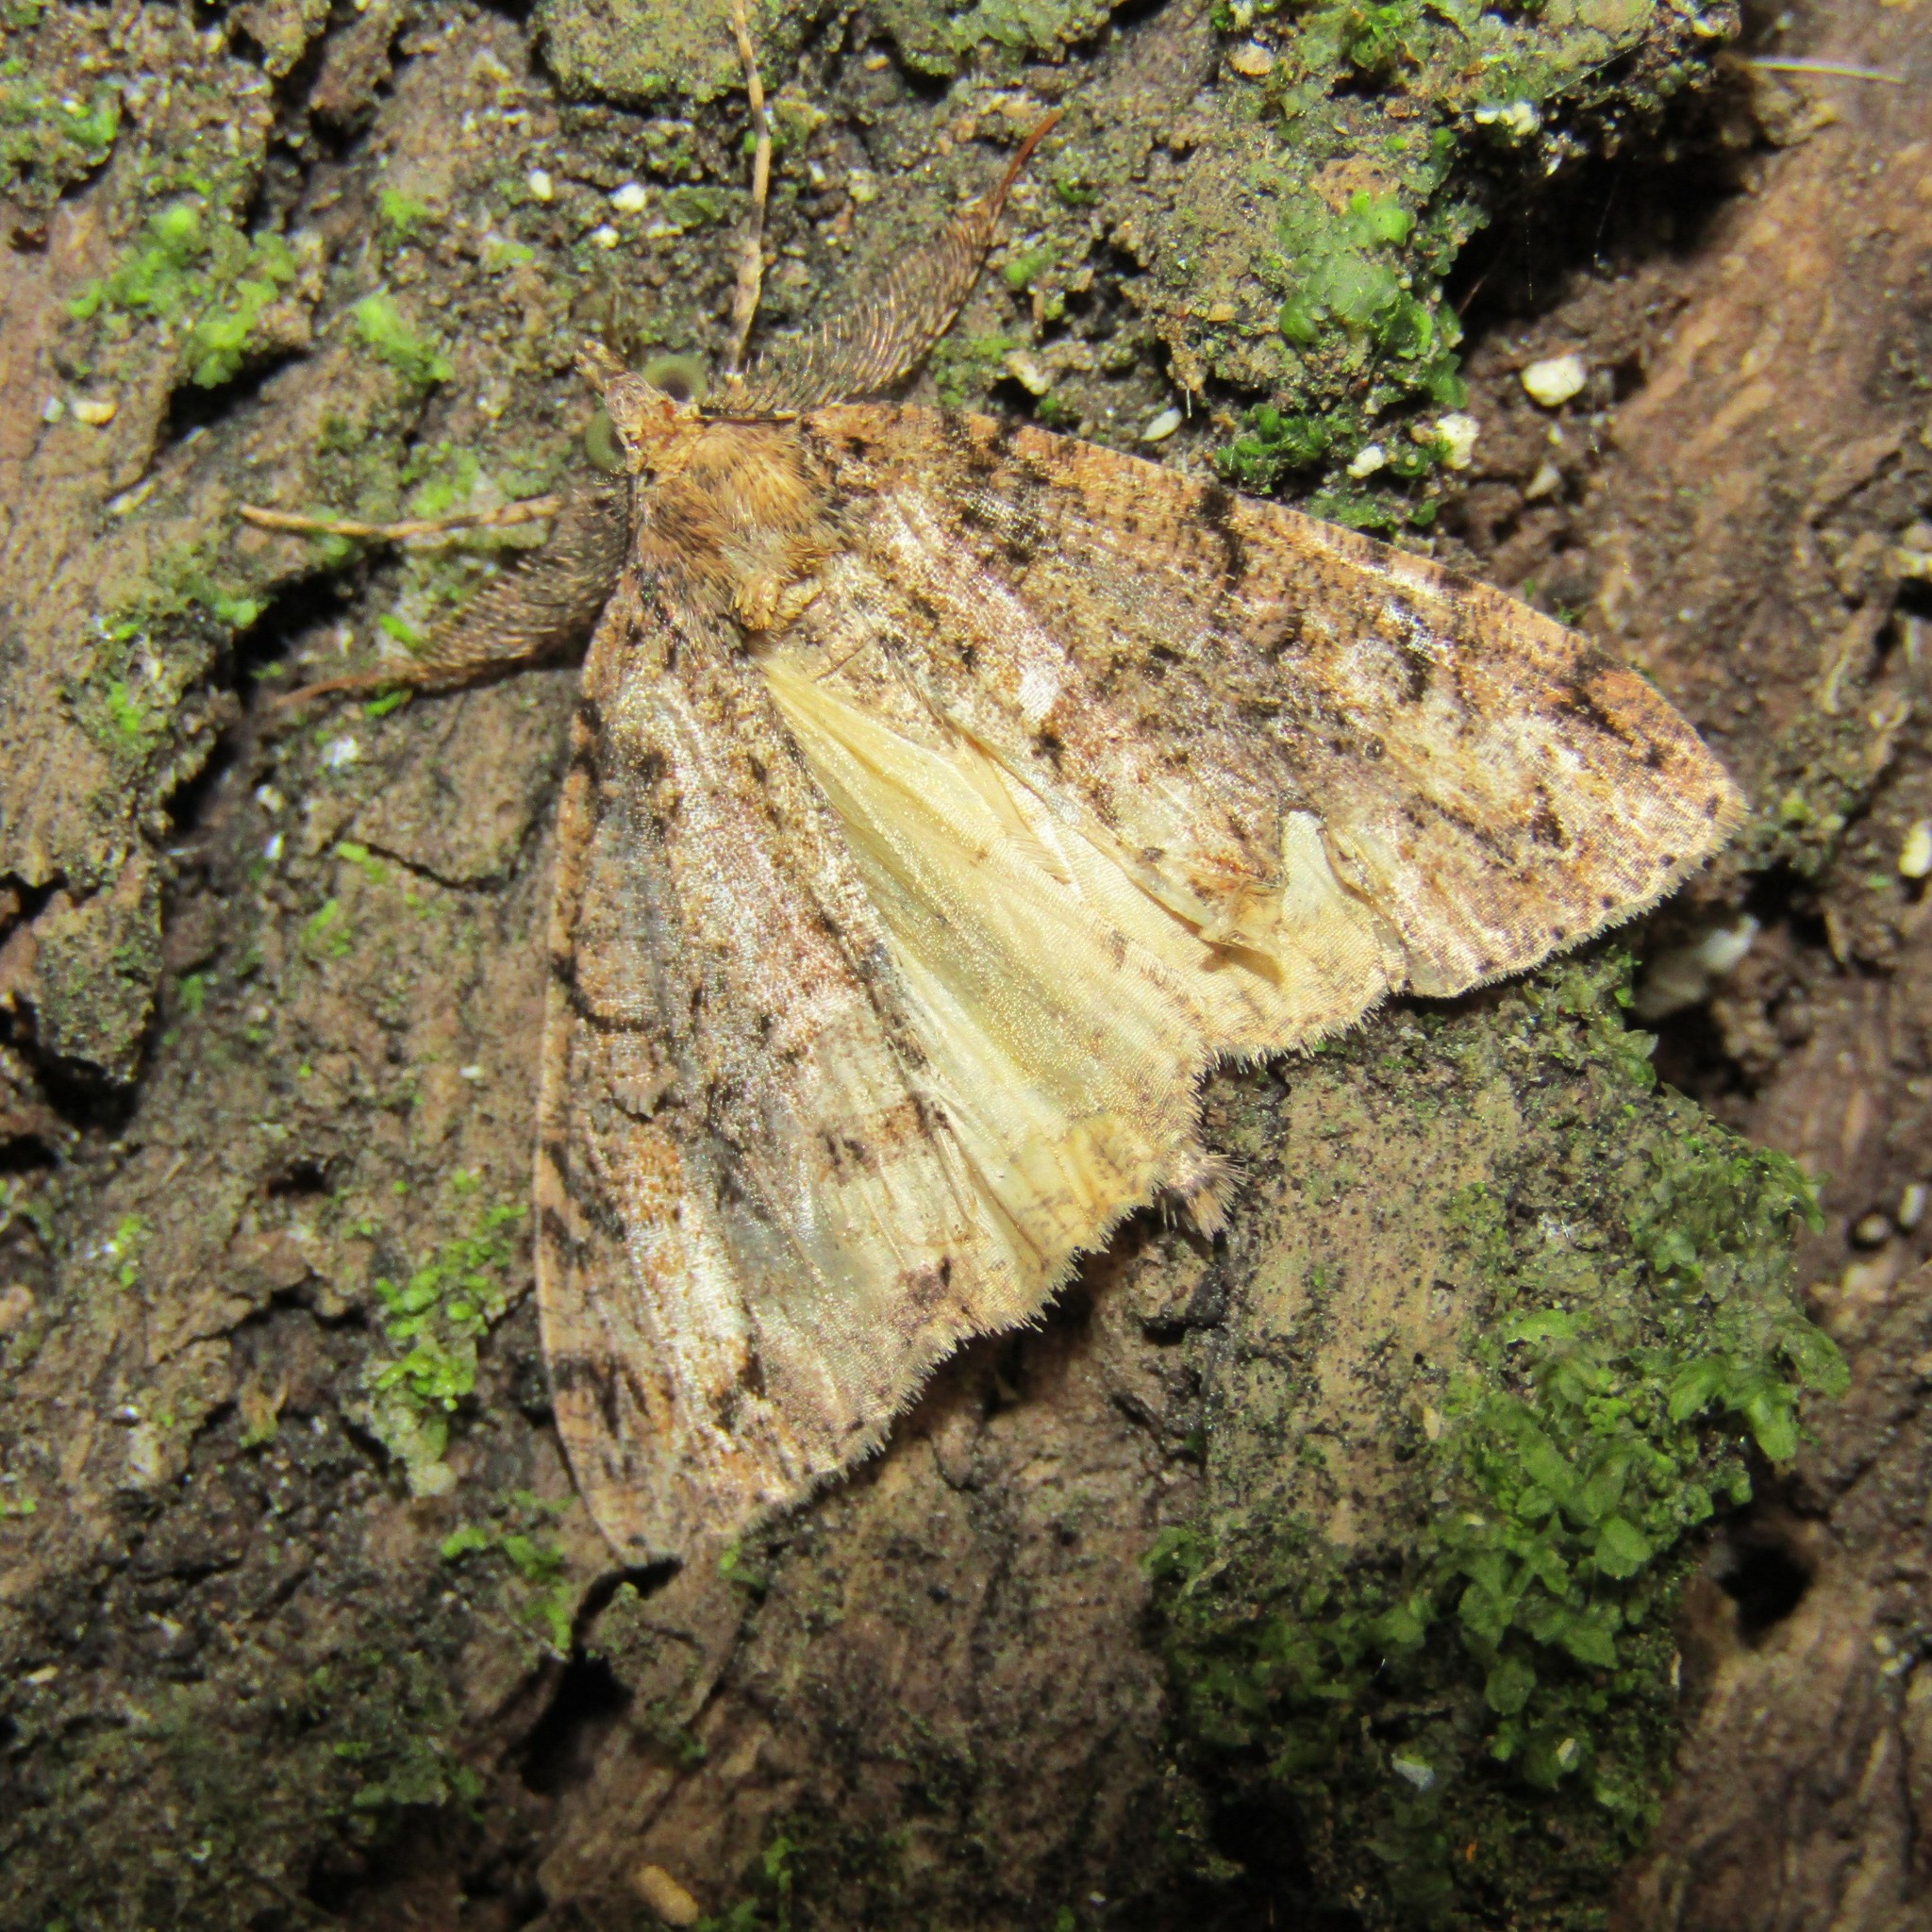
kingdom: Animalia
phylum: Arthropoda
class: Insecta
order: Lepidoptera
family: Geometridae
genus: Pseudocoremia
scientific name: Pseudocoremia suavis
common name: Common forest looper
